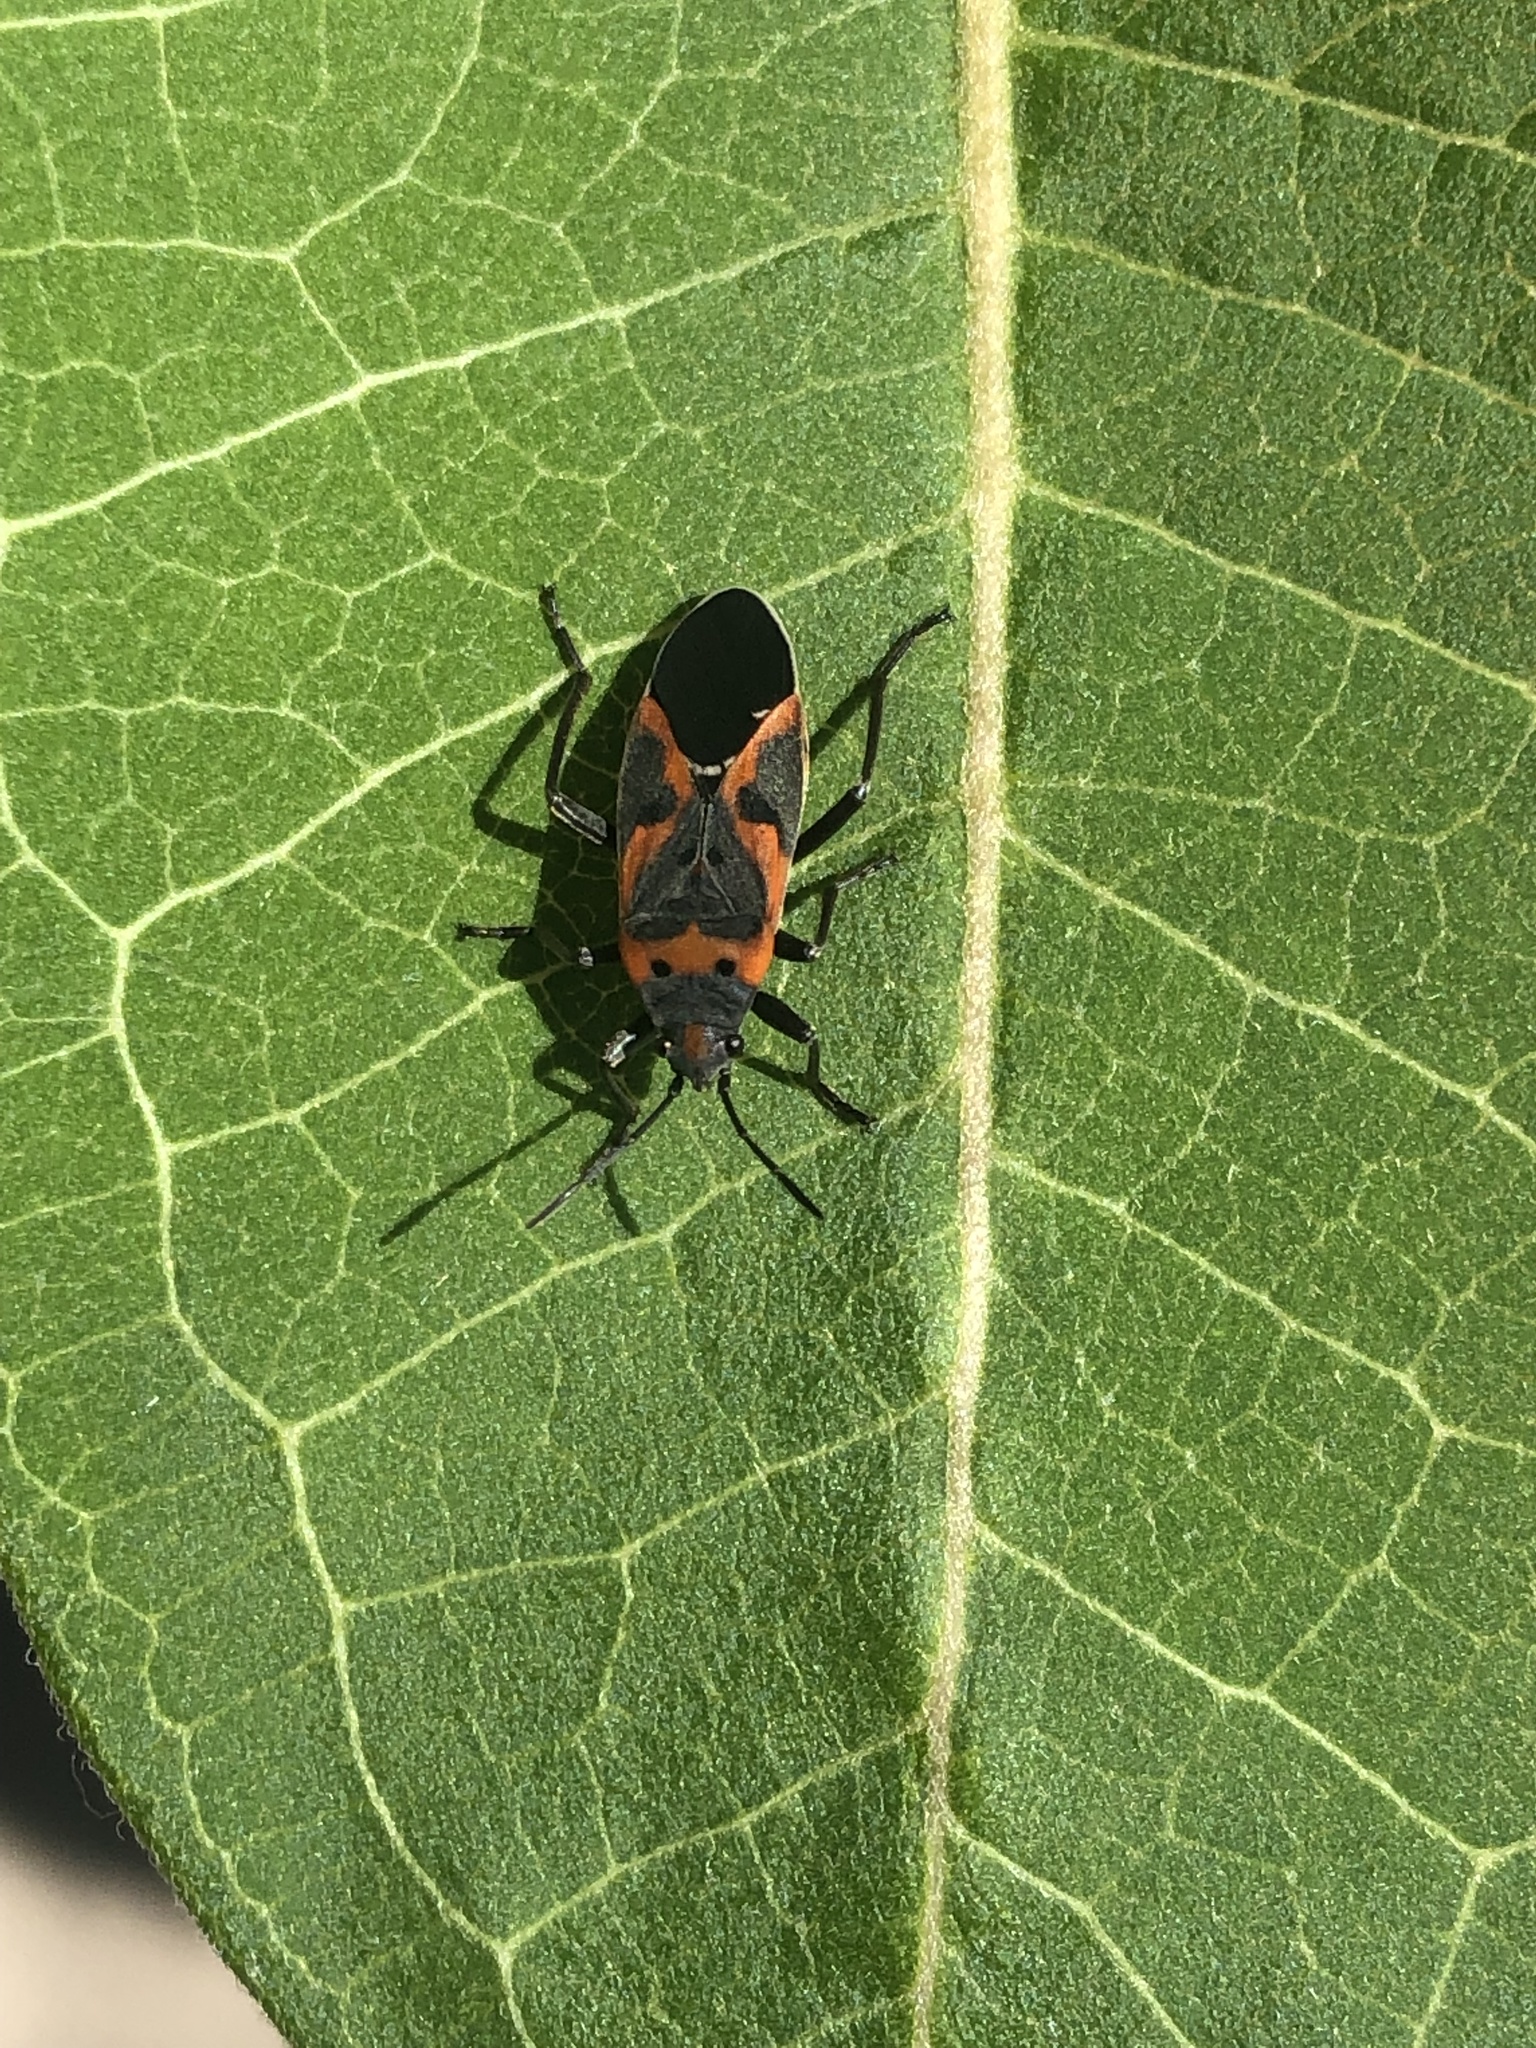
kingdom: Animalia
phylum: Arthropoda
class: Insecta
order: Hemiptera
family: Lygaeidae
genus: Lygaeus
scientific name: Lygaeus kalmii
